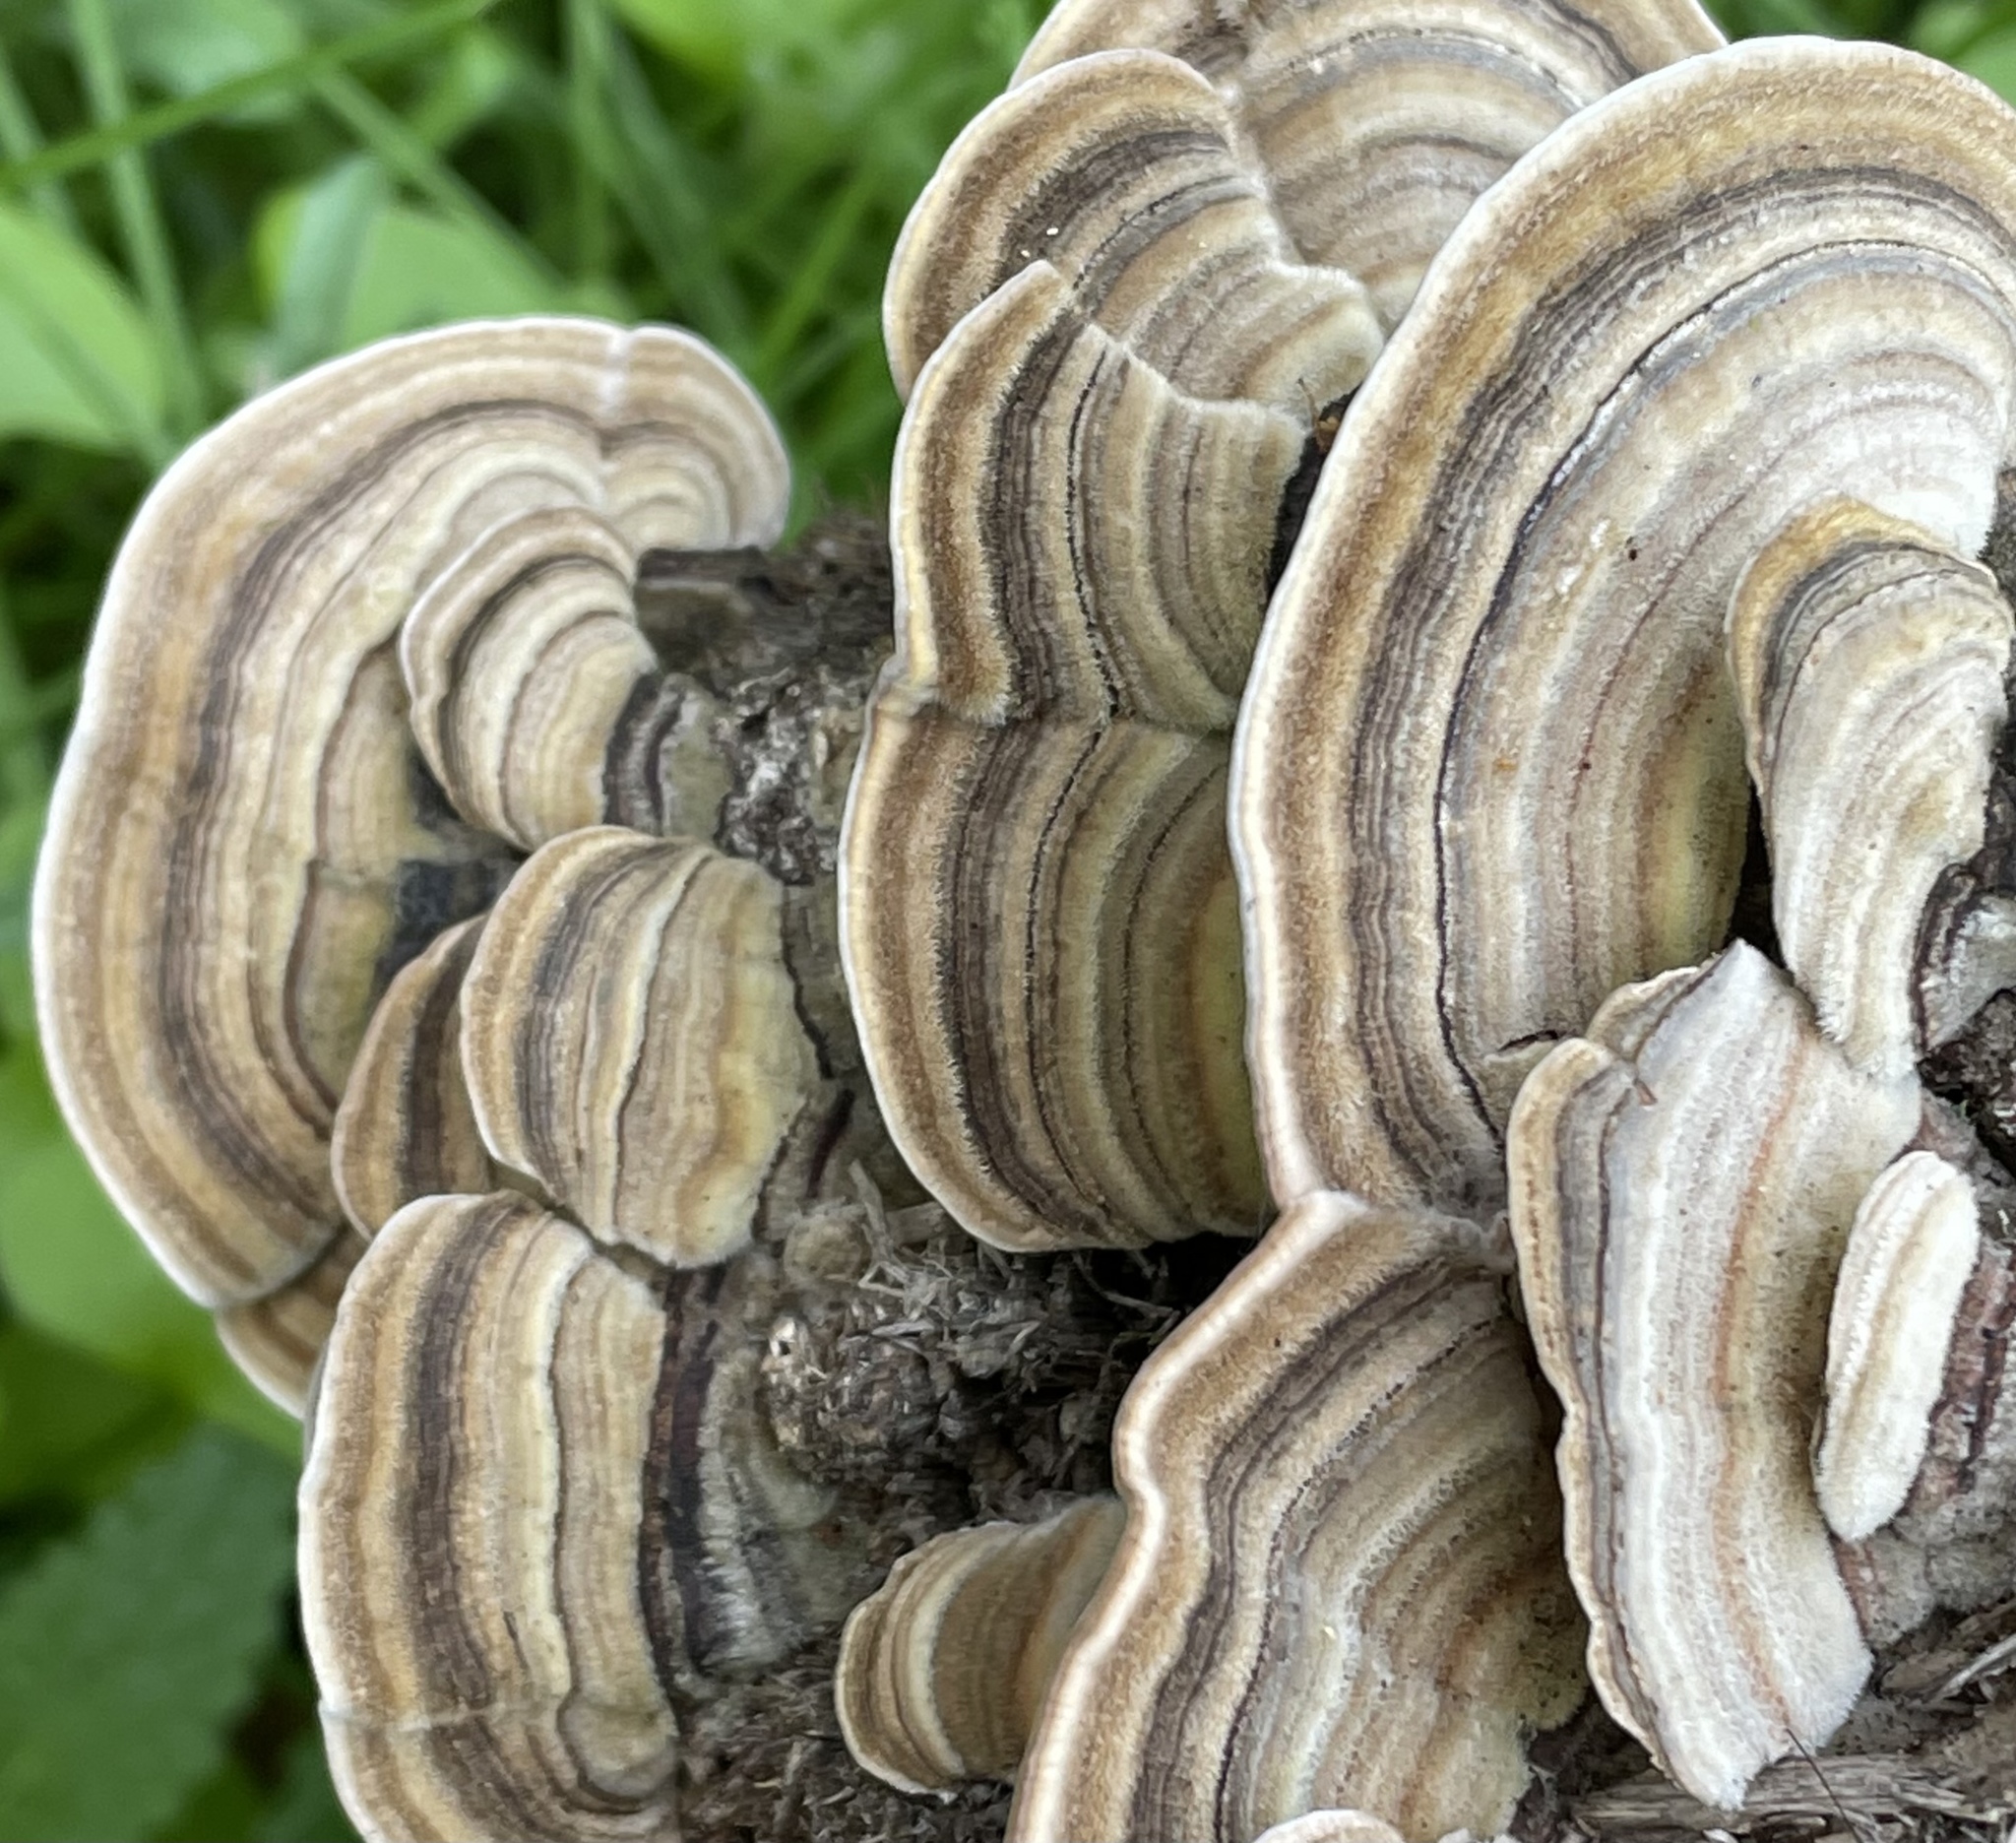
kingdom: Fungi
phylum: Basidiomycota
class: Agaricomycetes
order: Polyporales
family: Polyporaceae
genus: Trametes
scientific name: Trametes versicolor
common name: Turkeytail
